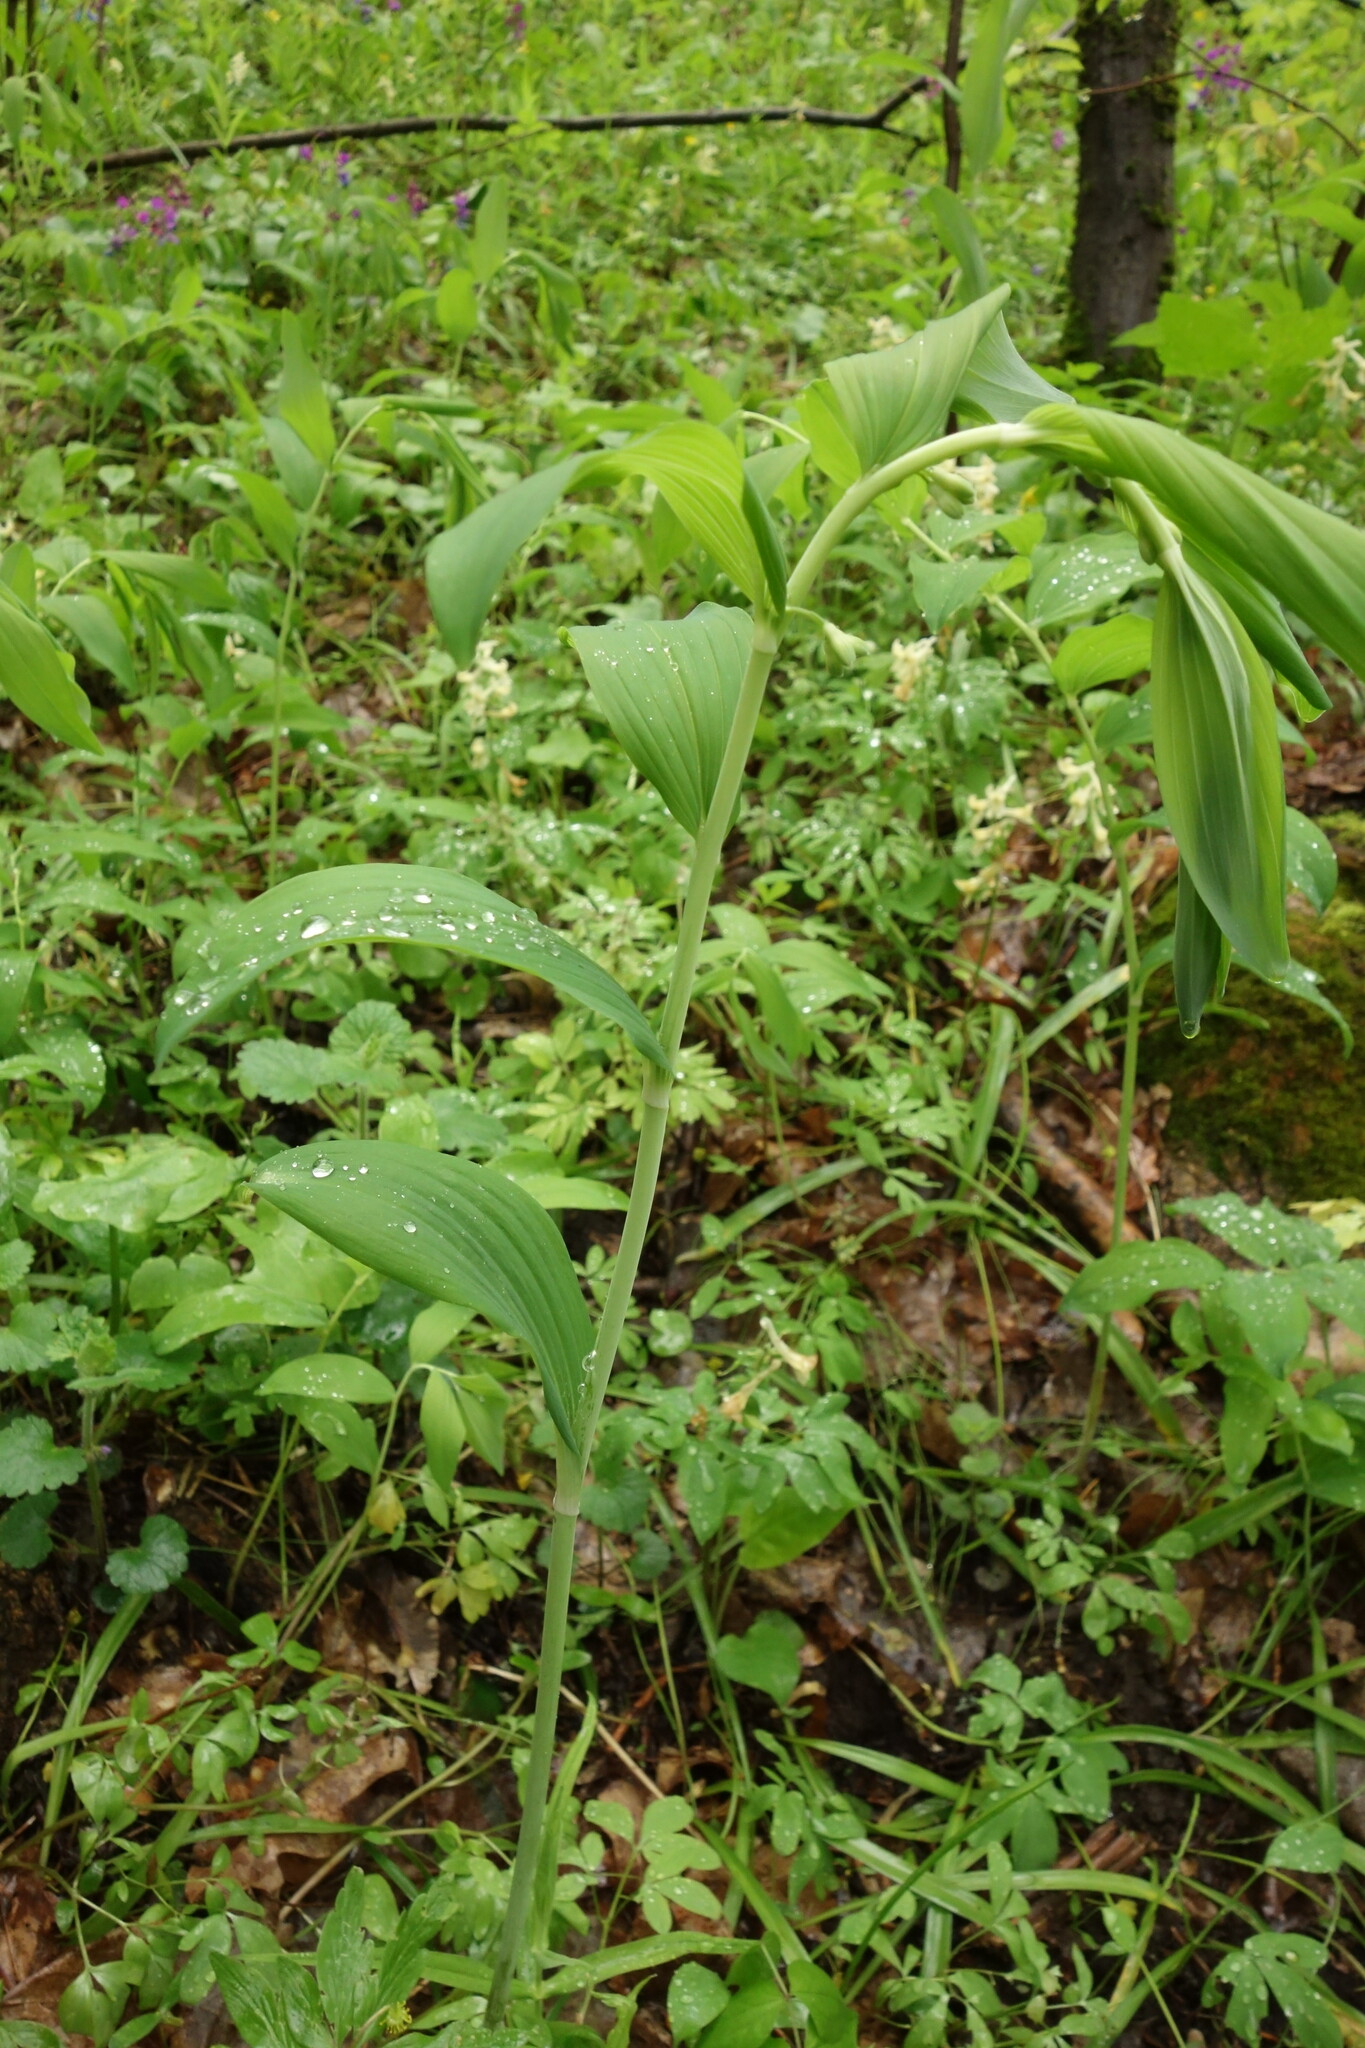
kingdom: Plantae
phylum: Tracheophyta
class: Liliopsida
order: Asparagales
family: Asparagaceae
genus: Polygonatum
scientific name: Polygonatum multiflorum
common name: Solomon's-seal
